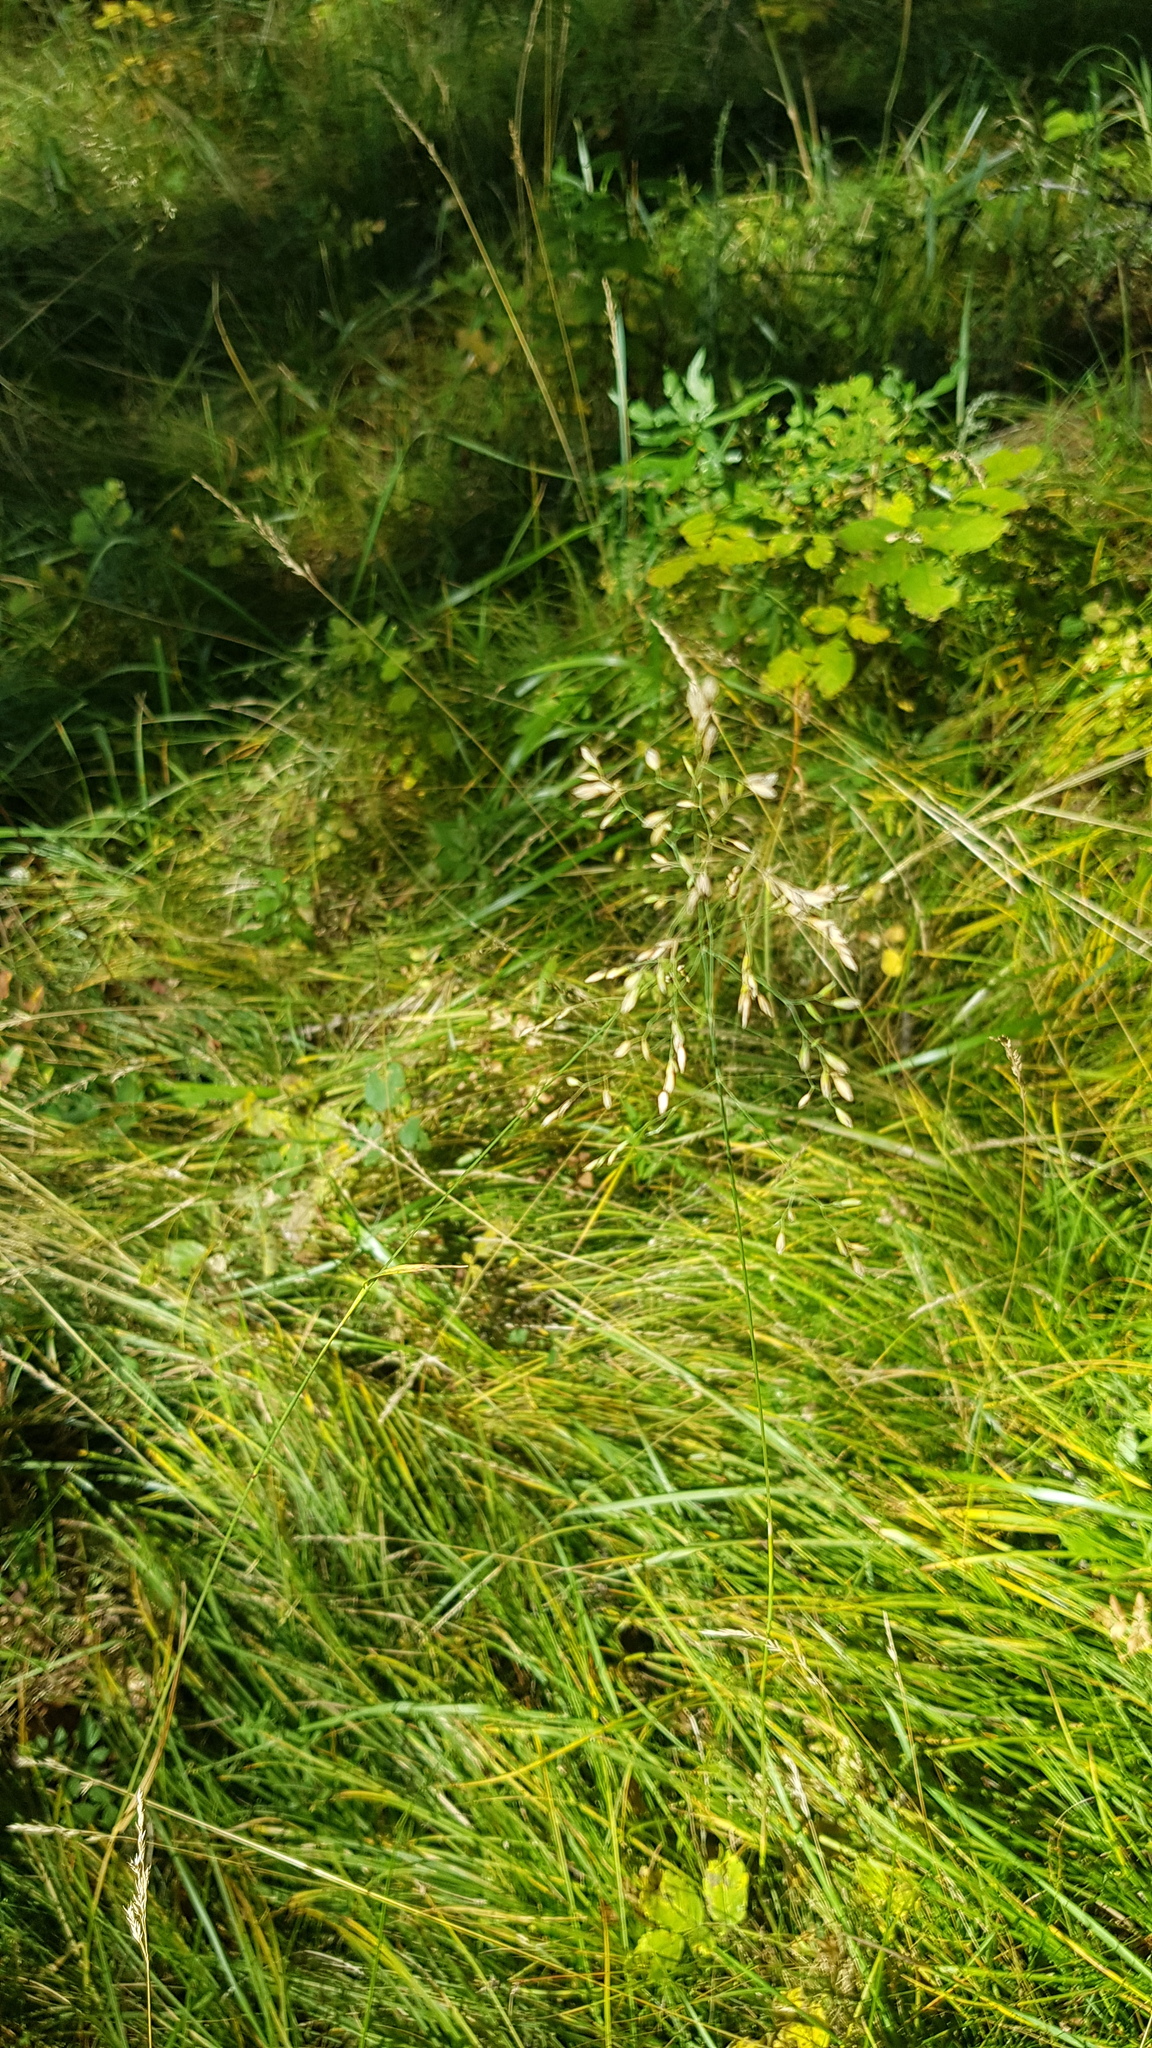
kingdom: Plantae
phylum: Tracheophyta
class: Liliopsida
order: Poales
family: Poaceae
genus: Poa
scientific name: Poa pratensis
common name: Kentucky bluegrass
